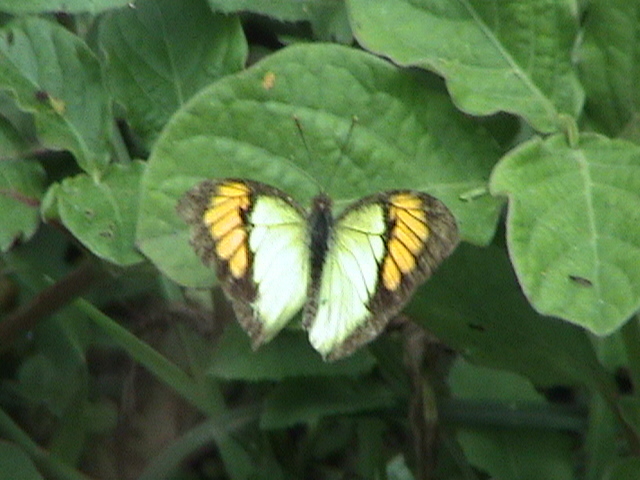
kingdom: Animalia
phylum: Arthropoda
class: Insecta
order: Lepidoptera
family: Pieridae
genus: Ixias
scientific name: Ixias pyrene
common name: Yellow orange tip
